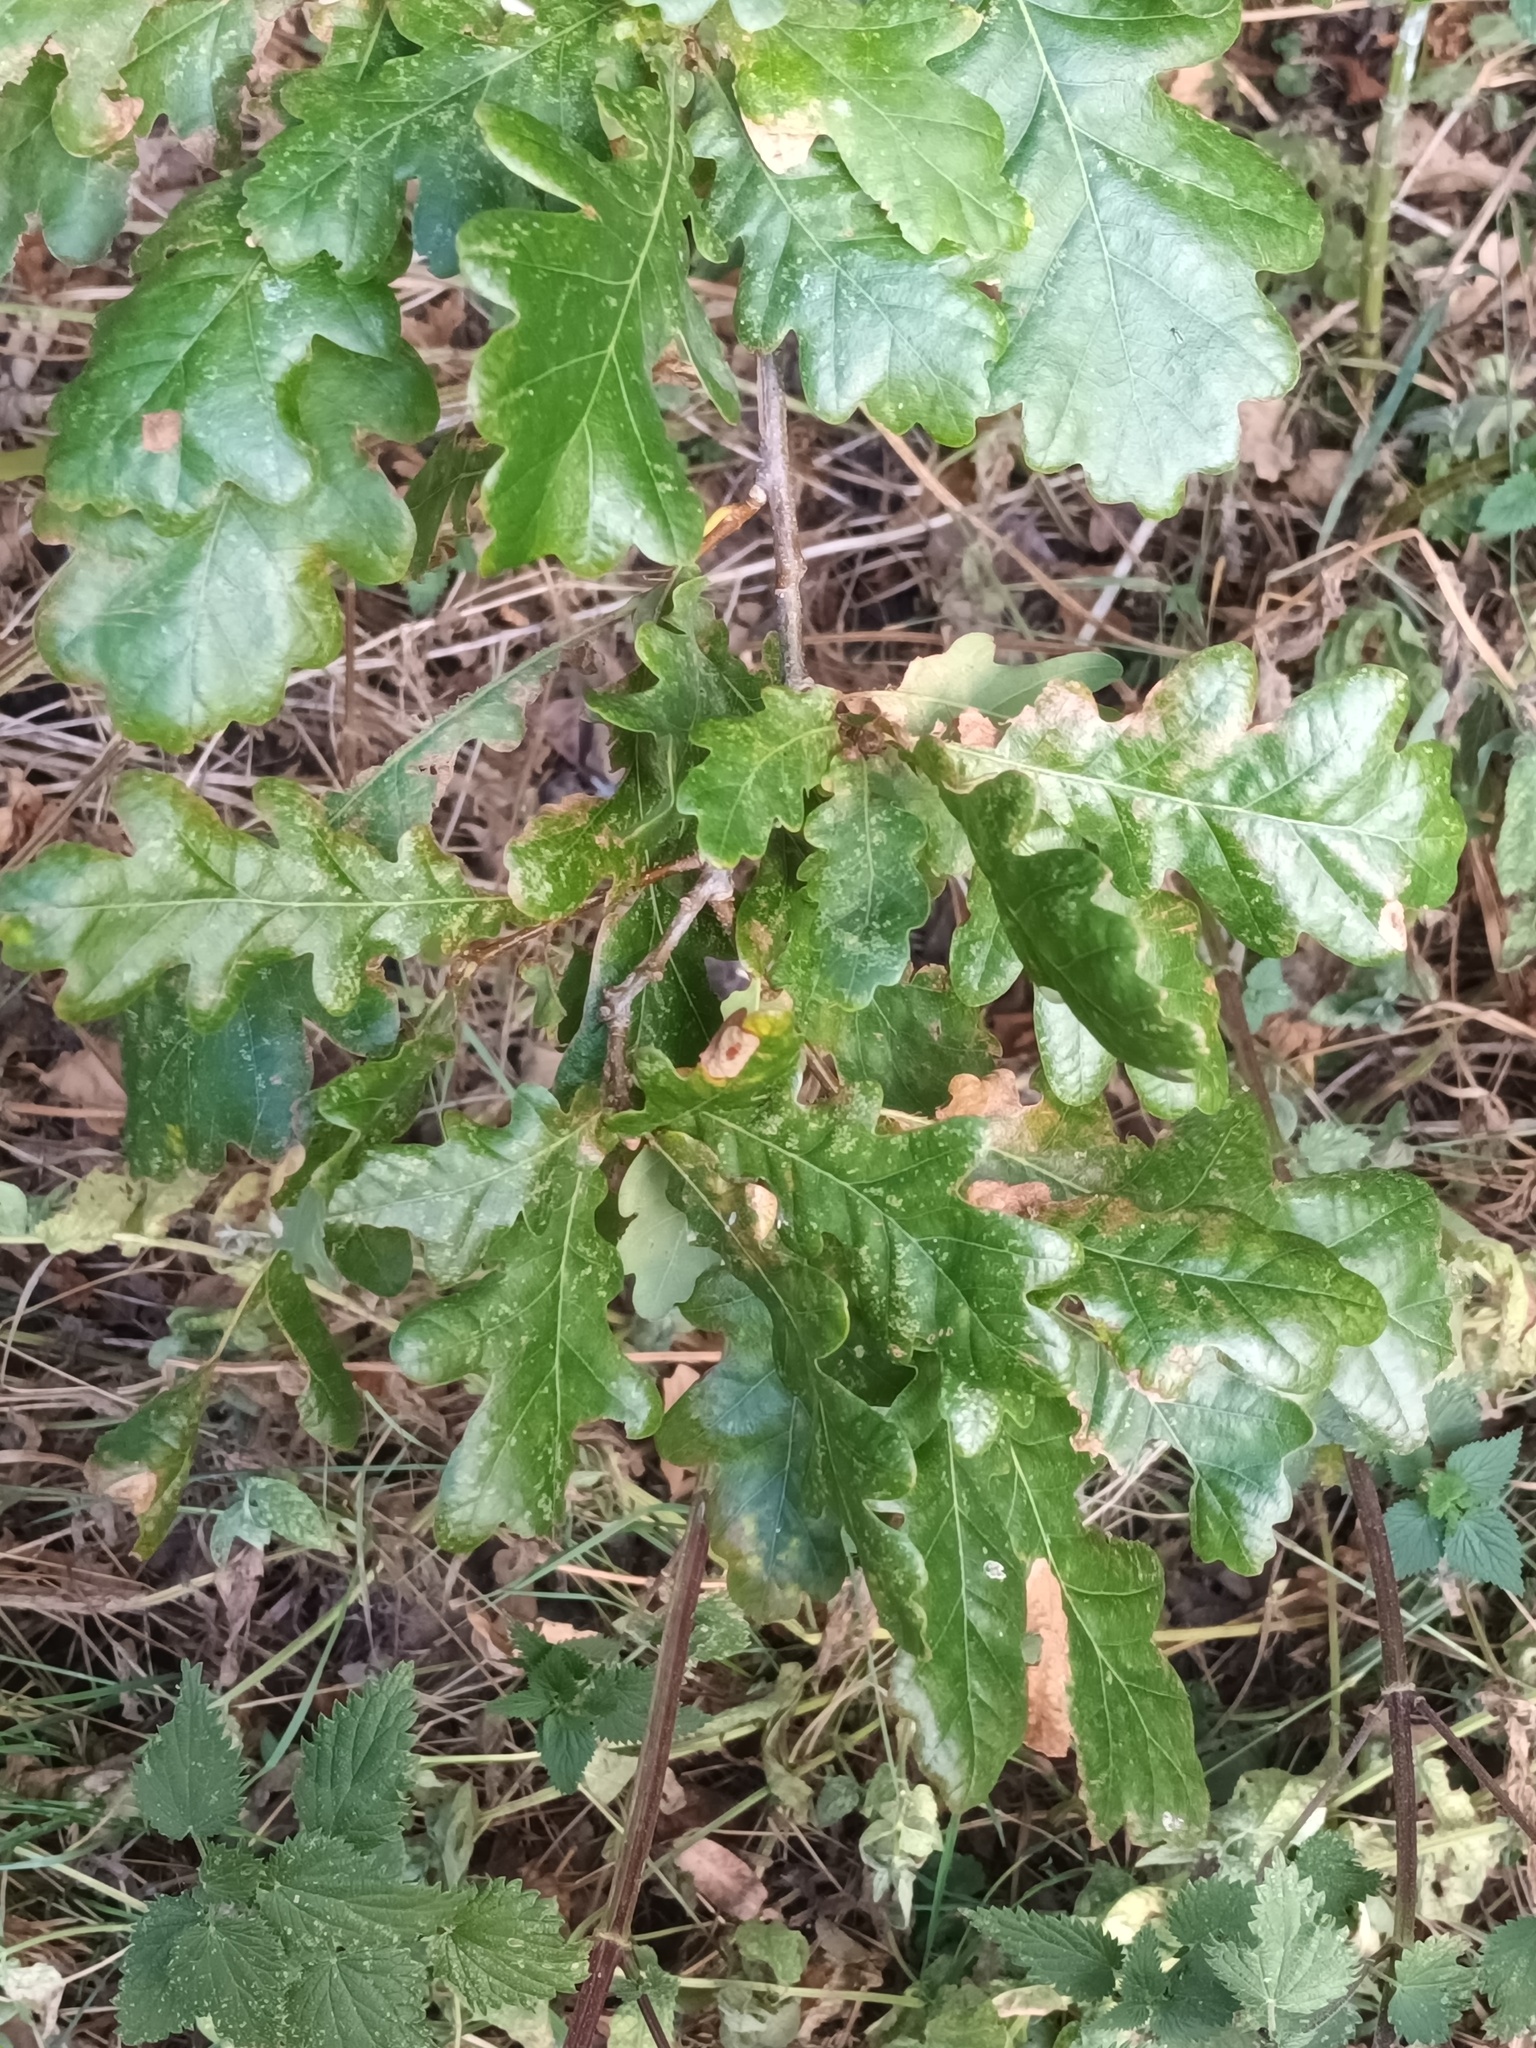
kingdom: Plantae
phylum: Tracheophyta
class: Magnoliopsida
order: Fagales
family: Fagaceae
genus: Quercus
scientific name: Quercus robur
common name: Pedunculate oak
